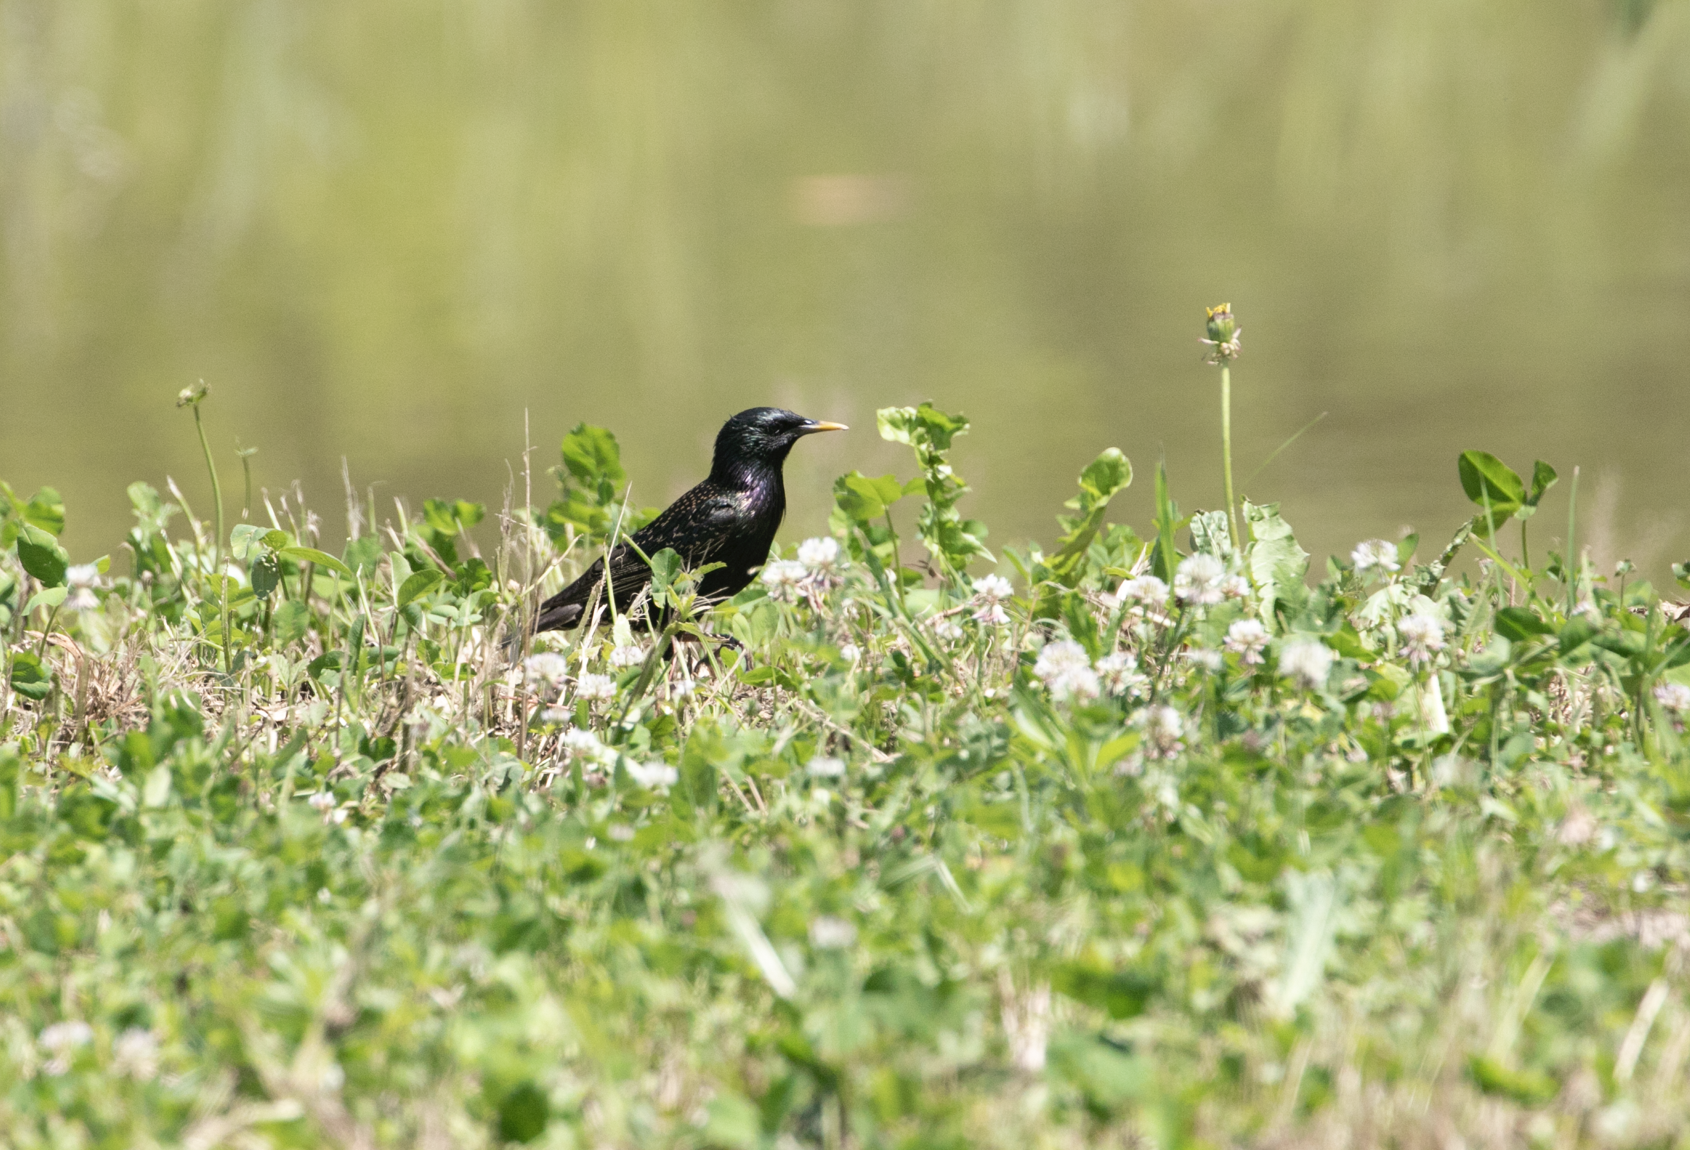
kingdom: Animalia
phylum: Chordata
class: Aves
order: Passeriformes
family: Sturnidae
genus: Sturnus
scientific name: Sturnus vulgaris
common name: Common starling
